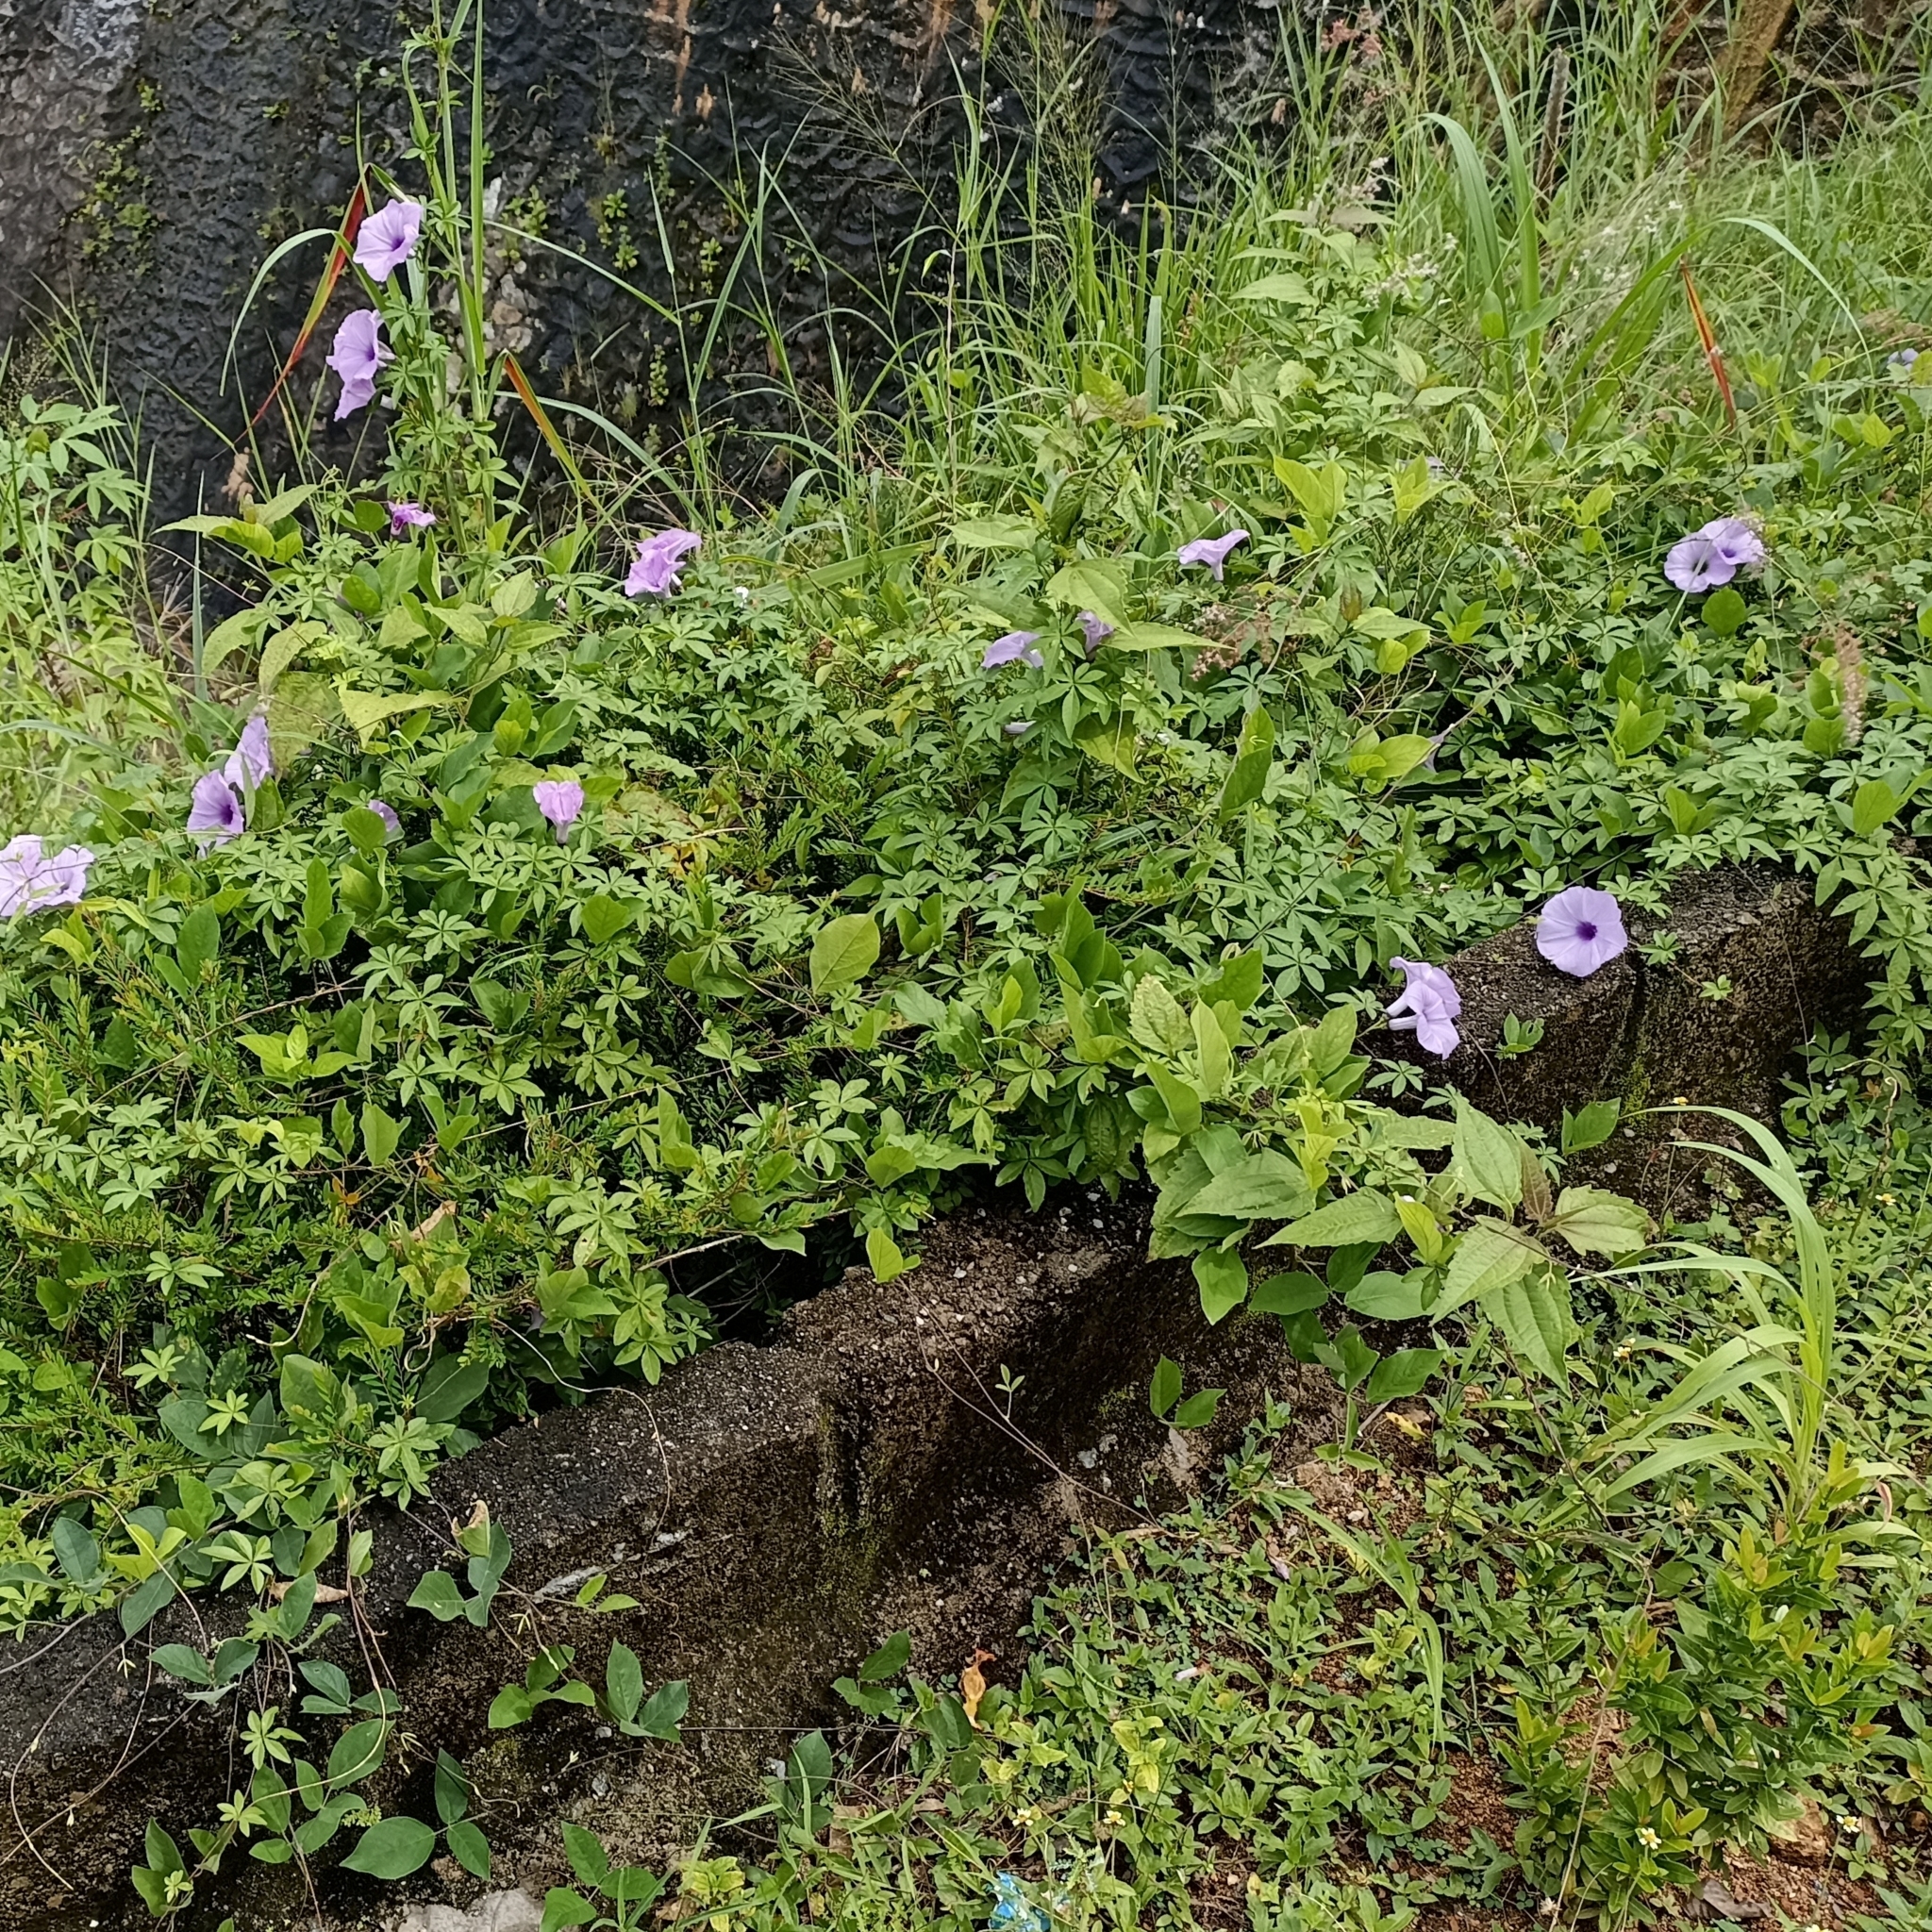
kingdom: Plantae
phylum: Tracheophyta
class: Magnoliopsida
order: Solanales
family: Convolvulaceae
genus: Ipomoea
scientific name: Ipomoea cairica
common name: Mile a minute vine
